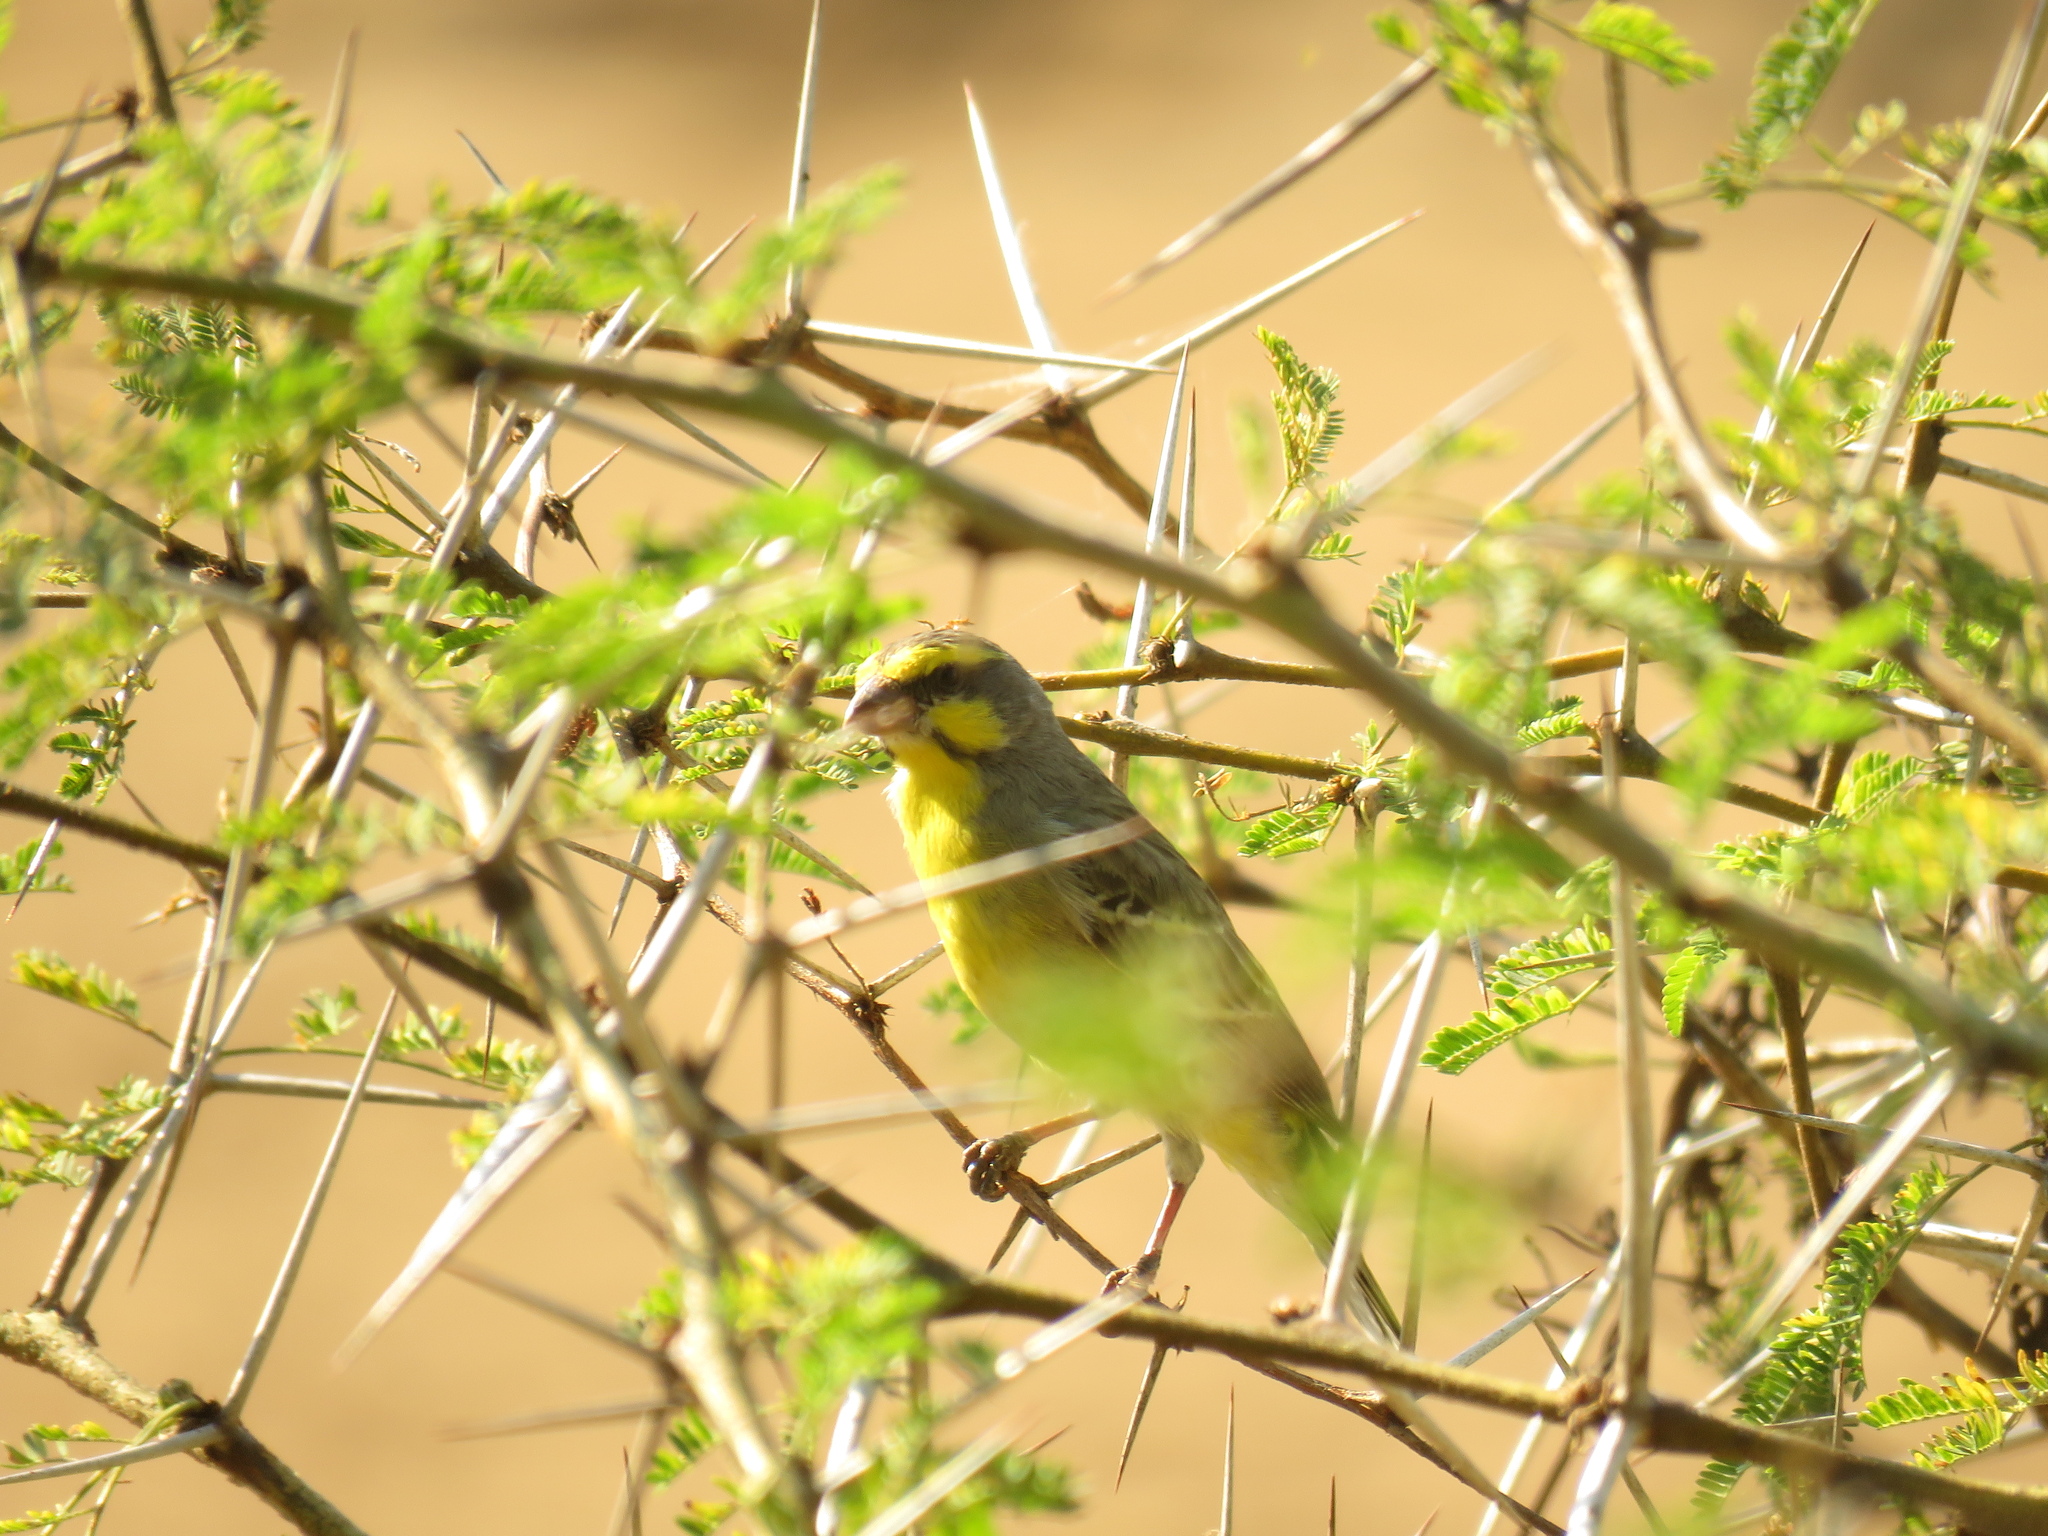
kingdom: Animalia
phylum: Chordata
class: Aves
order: Passeriformes
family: Fringillidae
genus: Crithagra
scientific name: Crithagra mozambica
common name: Yellow-fronted canary
